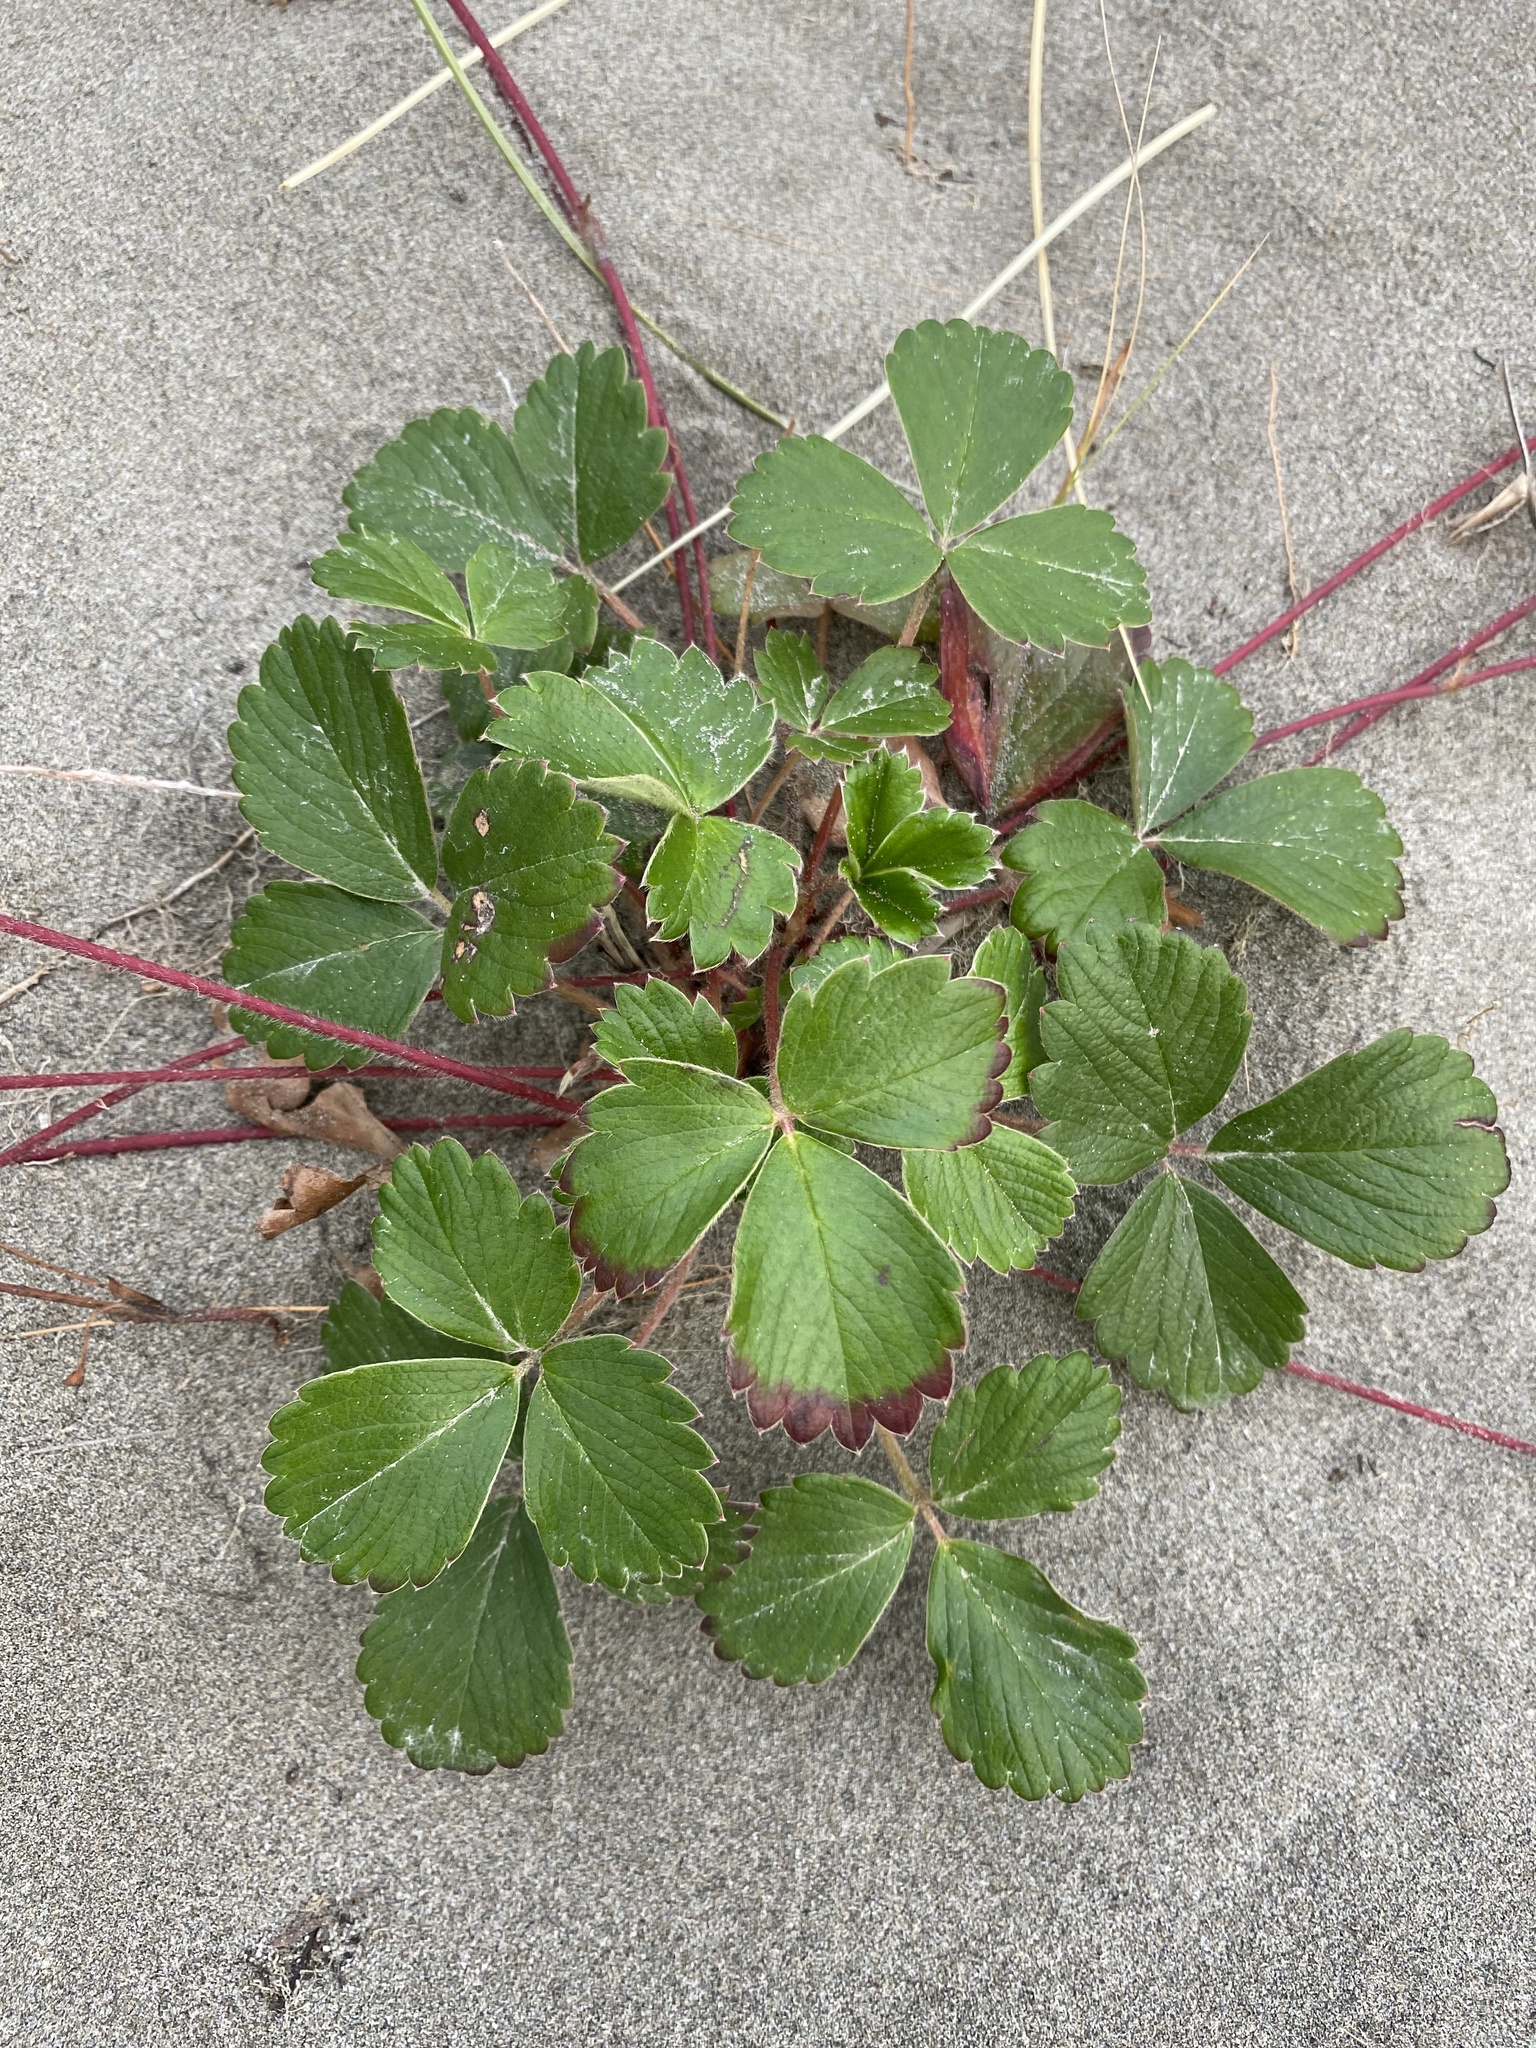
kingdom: Plantae
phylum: Tracheophyta
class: Magnoliopsida
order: Rosales
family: Rosaceae
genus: Fragaria
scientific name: Fragaria chiloensis
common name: Beach strawberry
